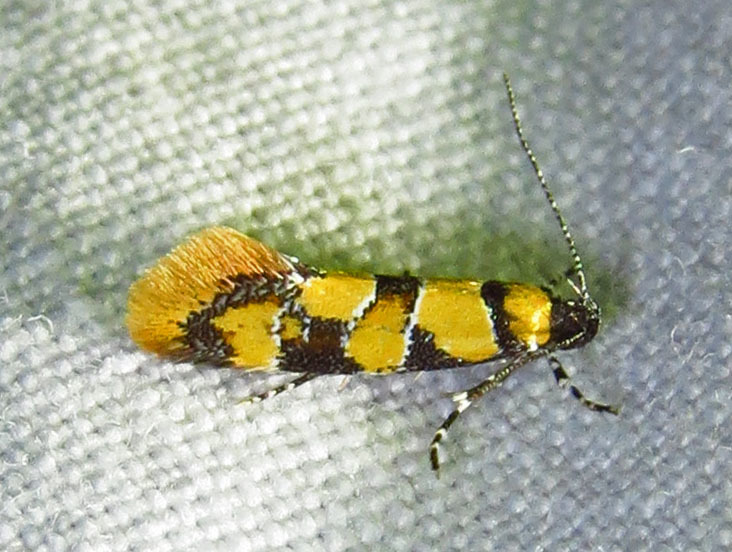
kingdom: Animalia
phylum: Arthropoda
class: Insecta
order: Lepidoptera
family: Oecophoridae
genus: Decantha
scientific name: Decantha borkhausenii
